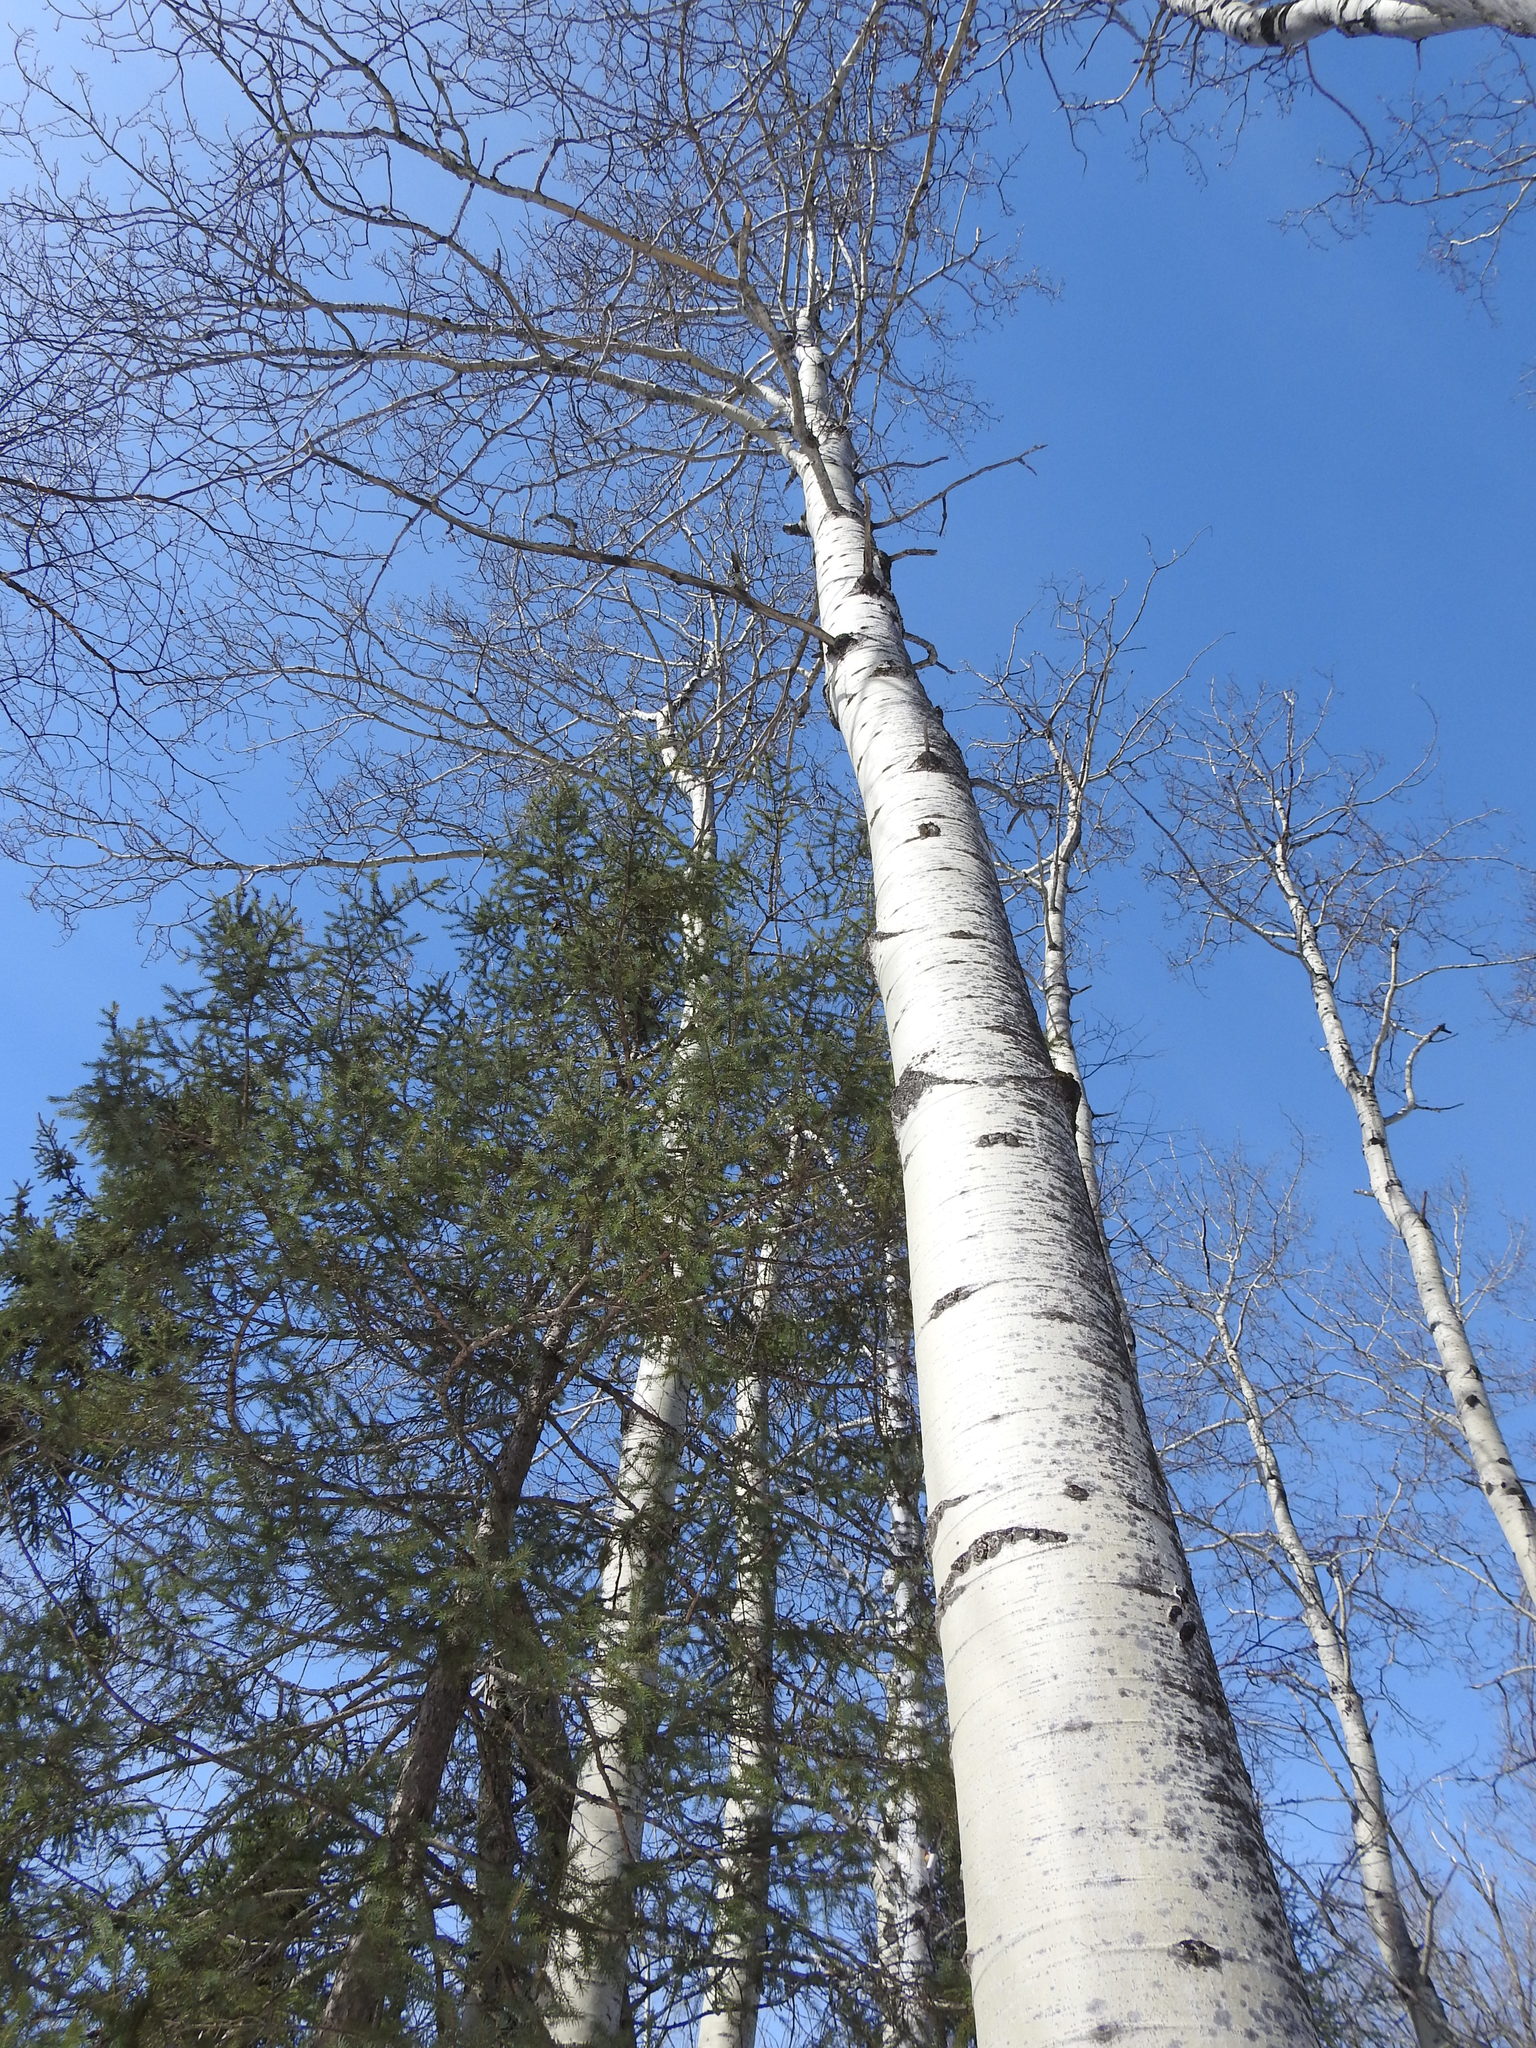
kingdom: Plantae
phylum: Tracheophyta
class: Magnoliopsida
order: Malpighiales
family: Salicaceae
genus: Populus
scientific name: Populus tremuloides
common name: Quaking aspen
